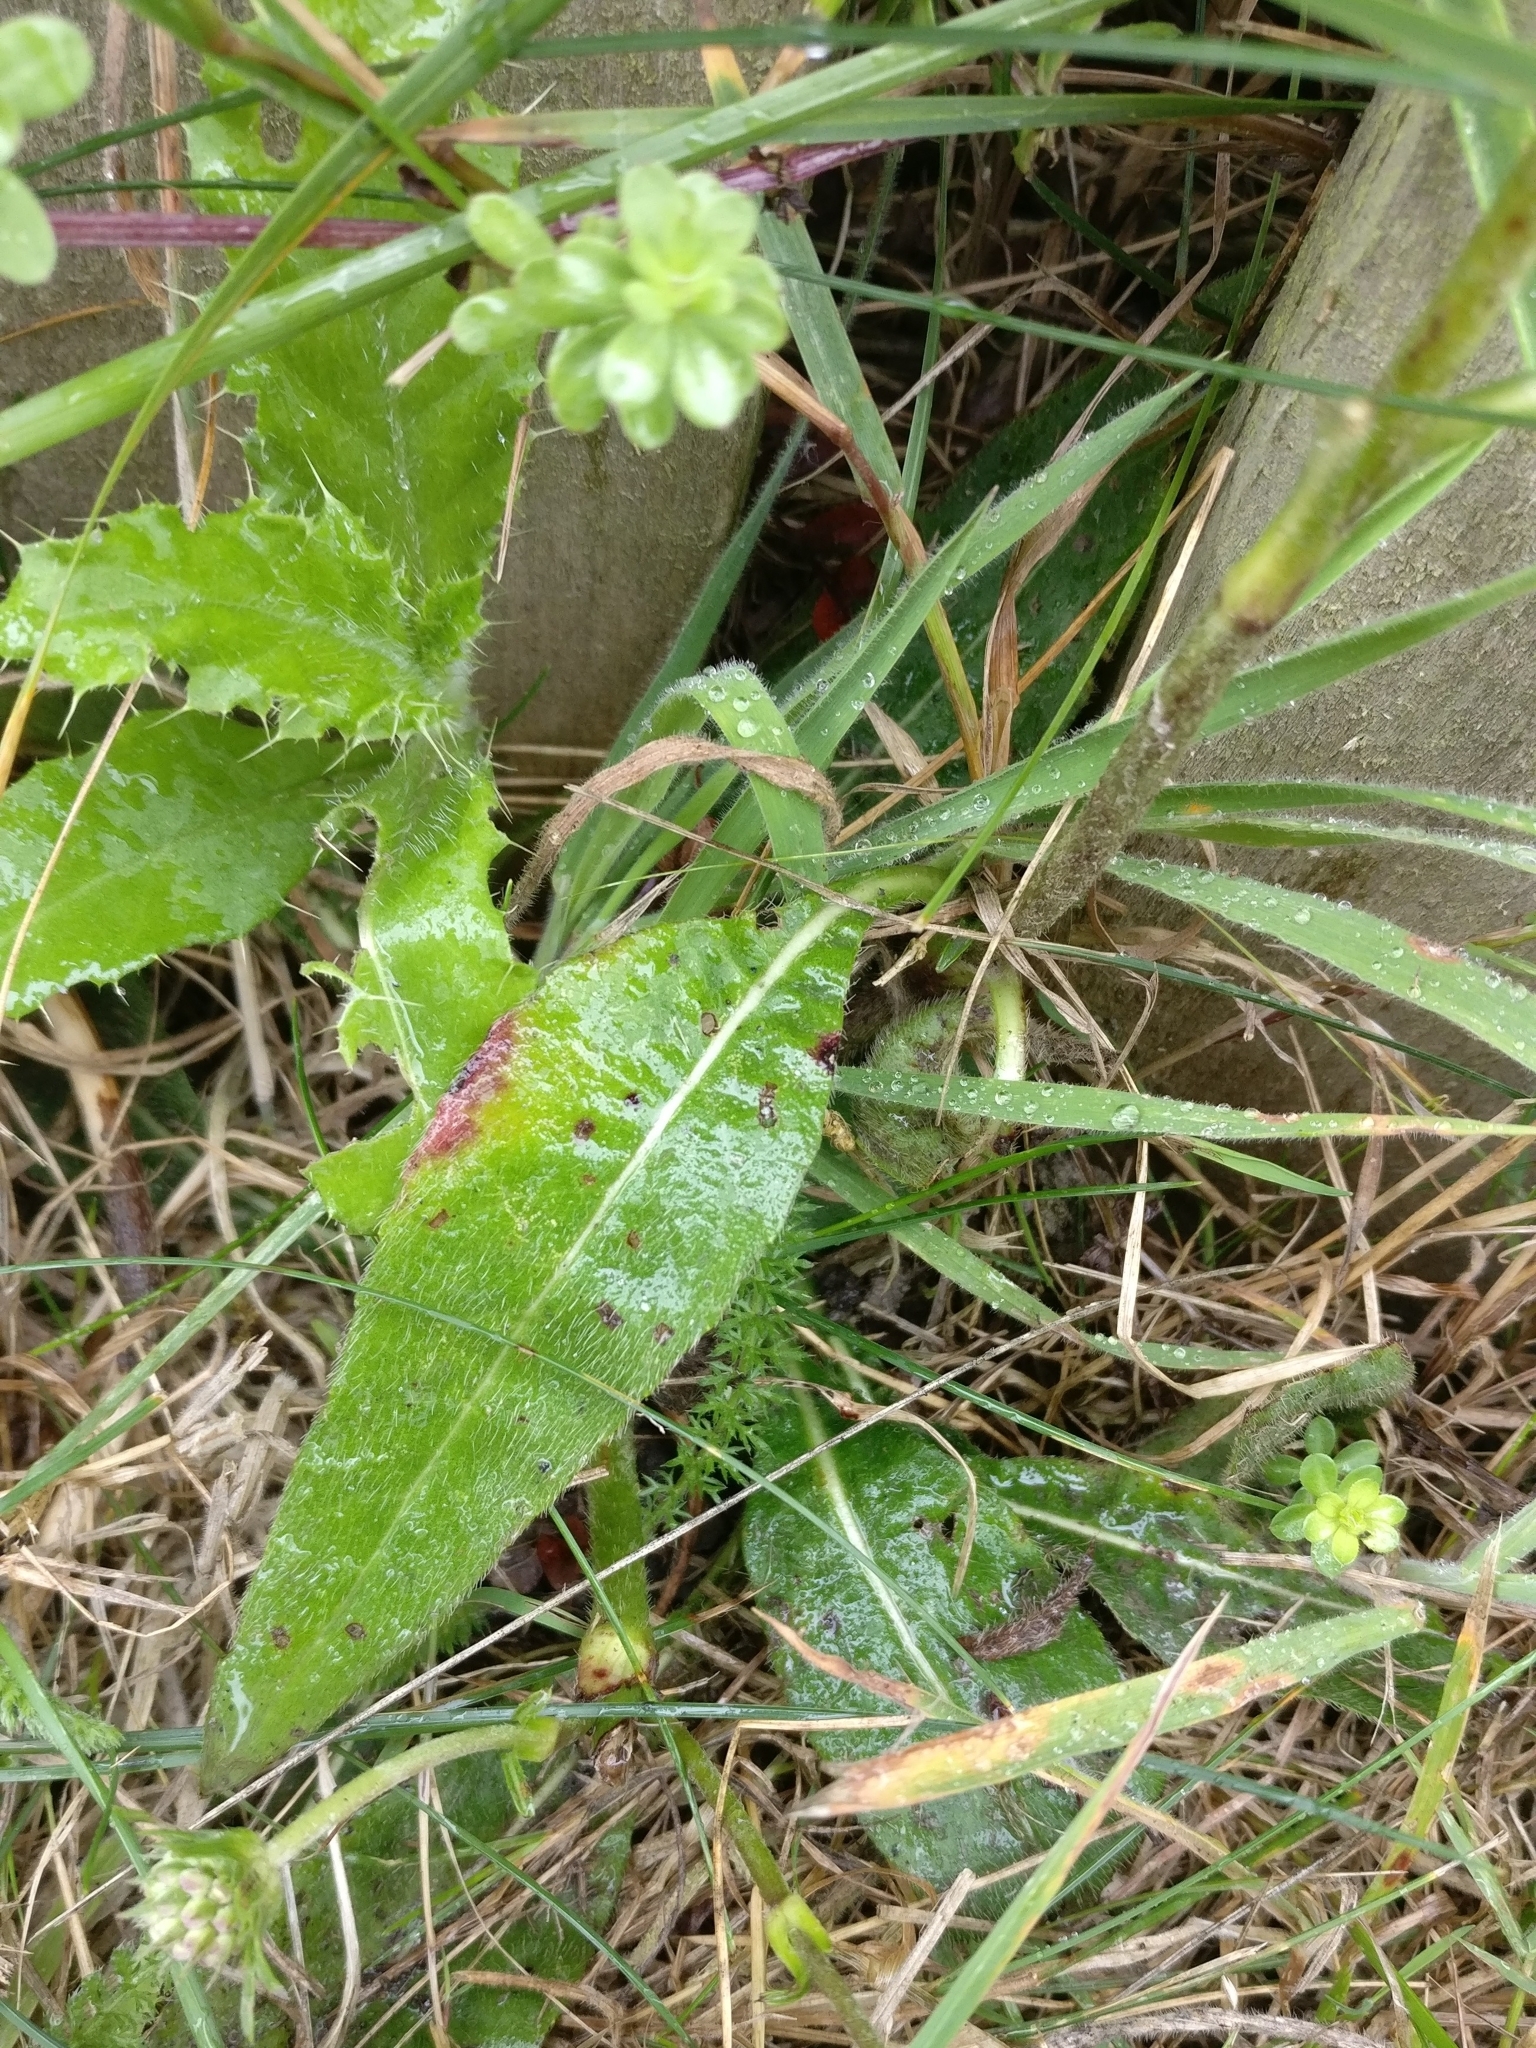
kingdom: Plantae
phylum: Tracheophyta
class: Magnoliopsida
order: Dipsacales
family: Caprifoliaceae
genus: Succisa
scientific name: Succisa pratensis
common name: Devil's-bit
